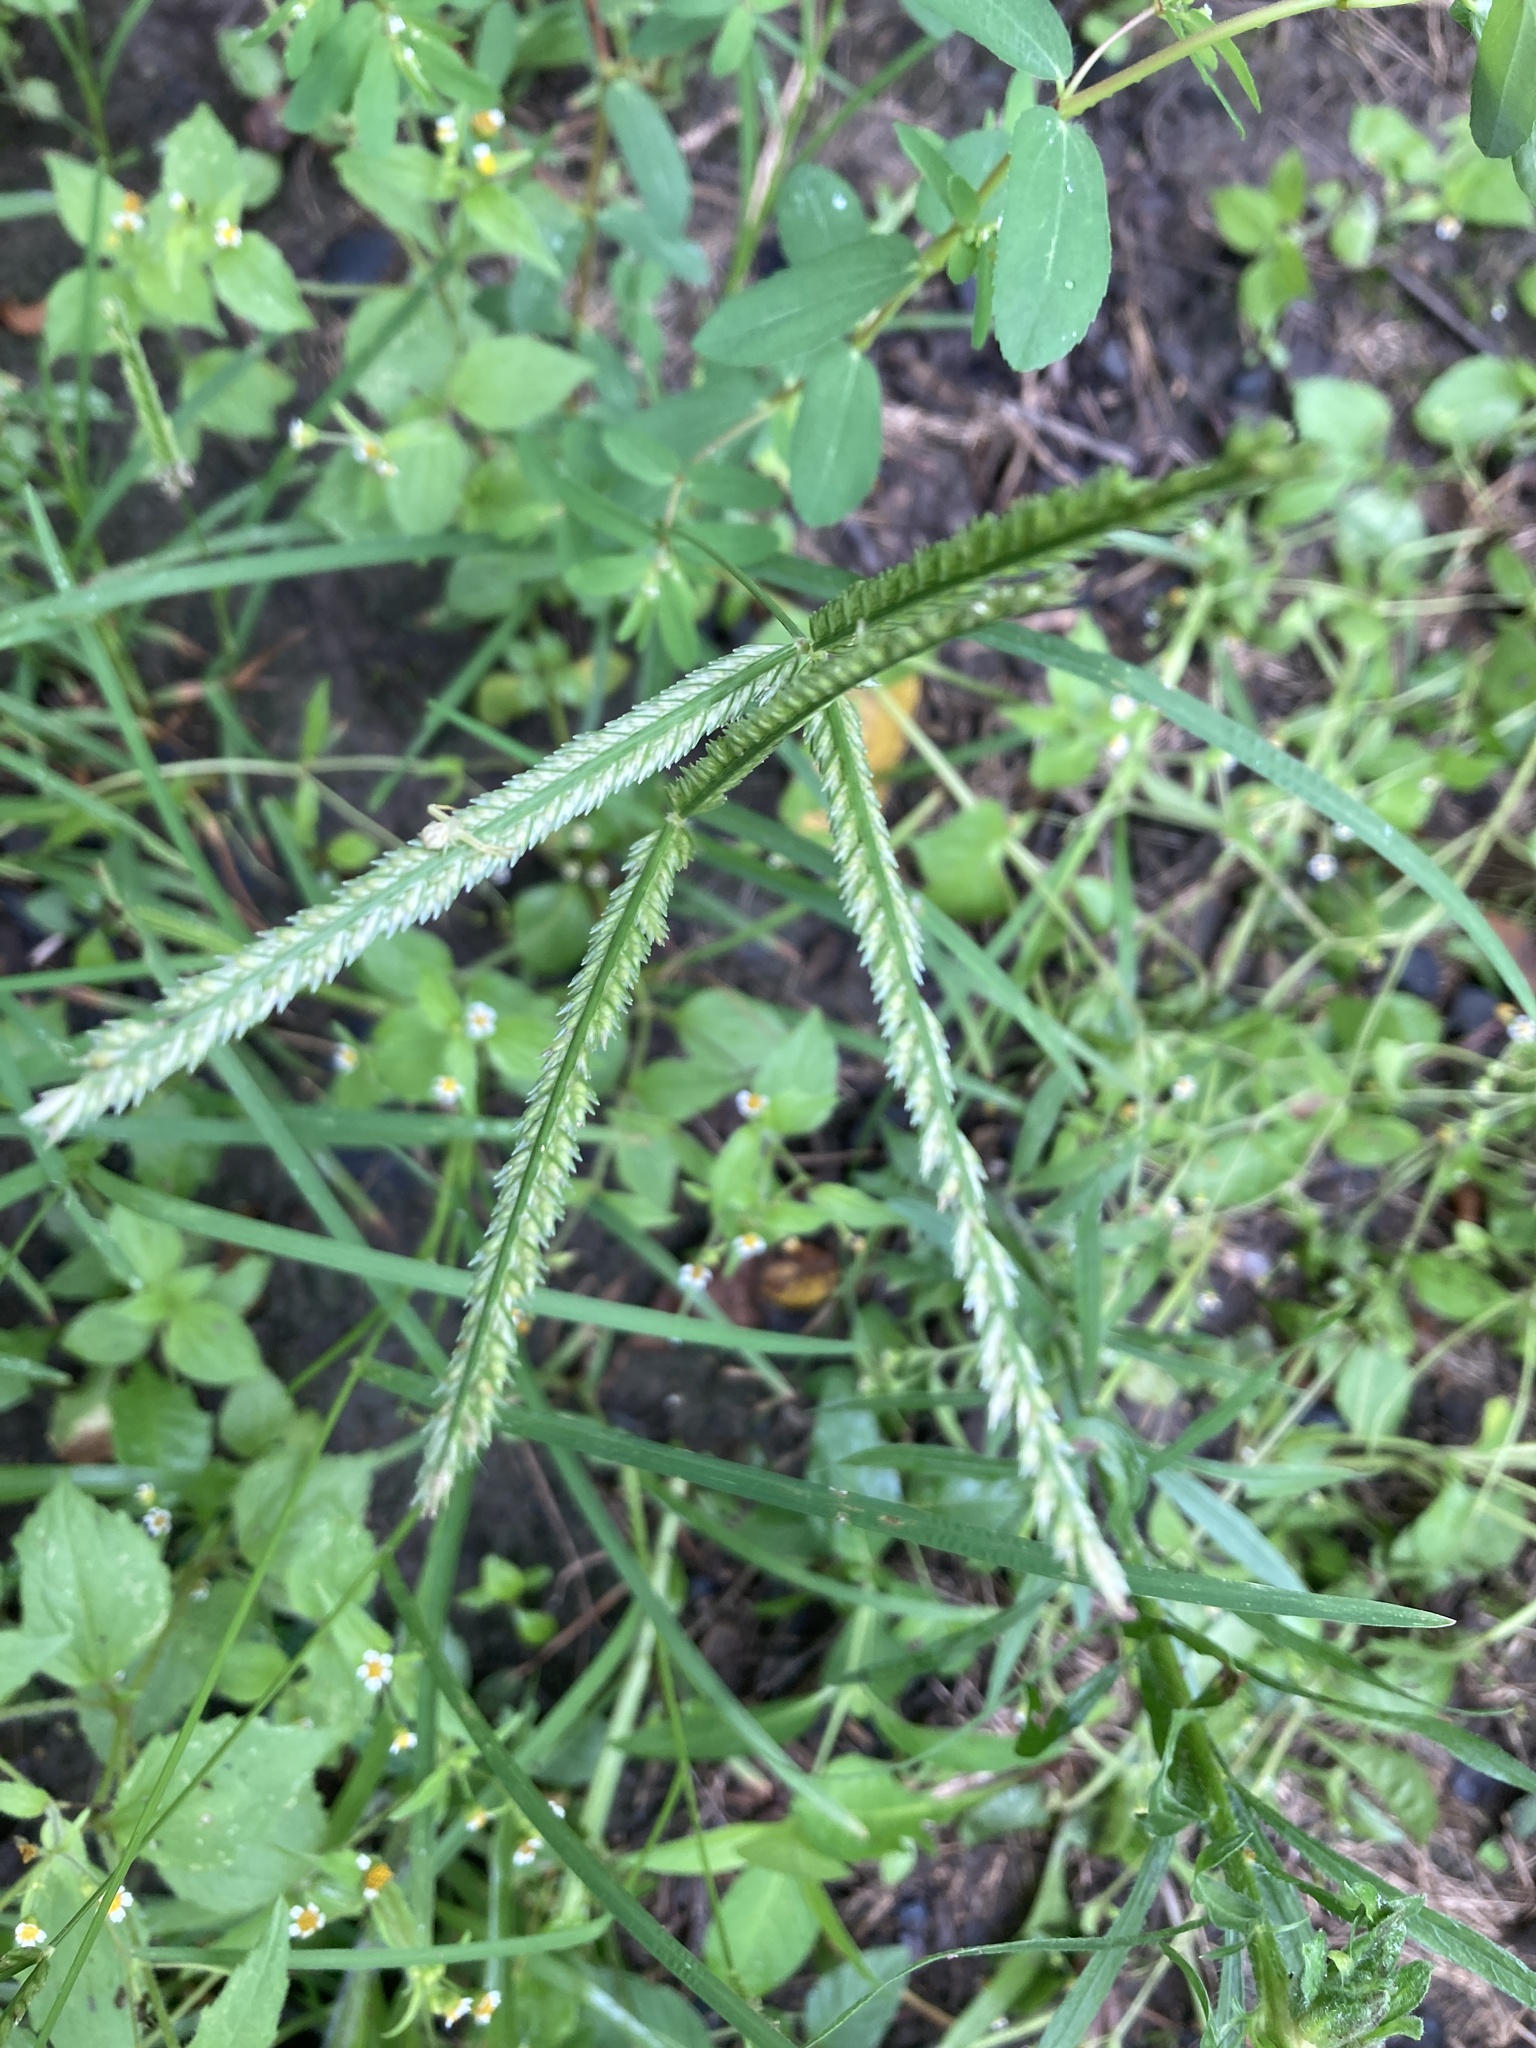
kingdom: Plantae
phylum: Tracheophyta
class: Liliopsida
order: Poales
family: Poaceae
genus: Eleusine
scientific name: Eleusine indica
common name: Yard-grass
